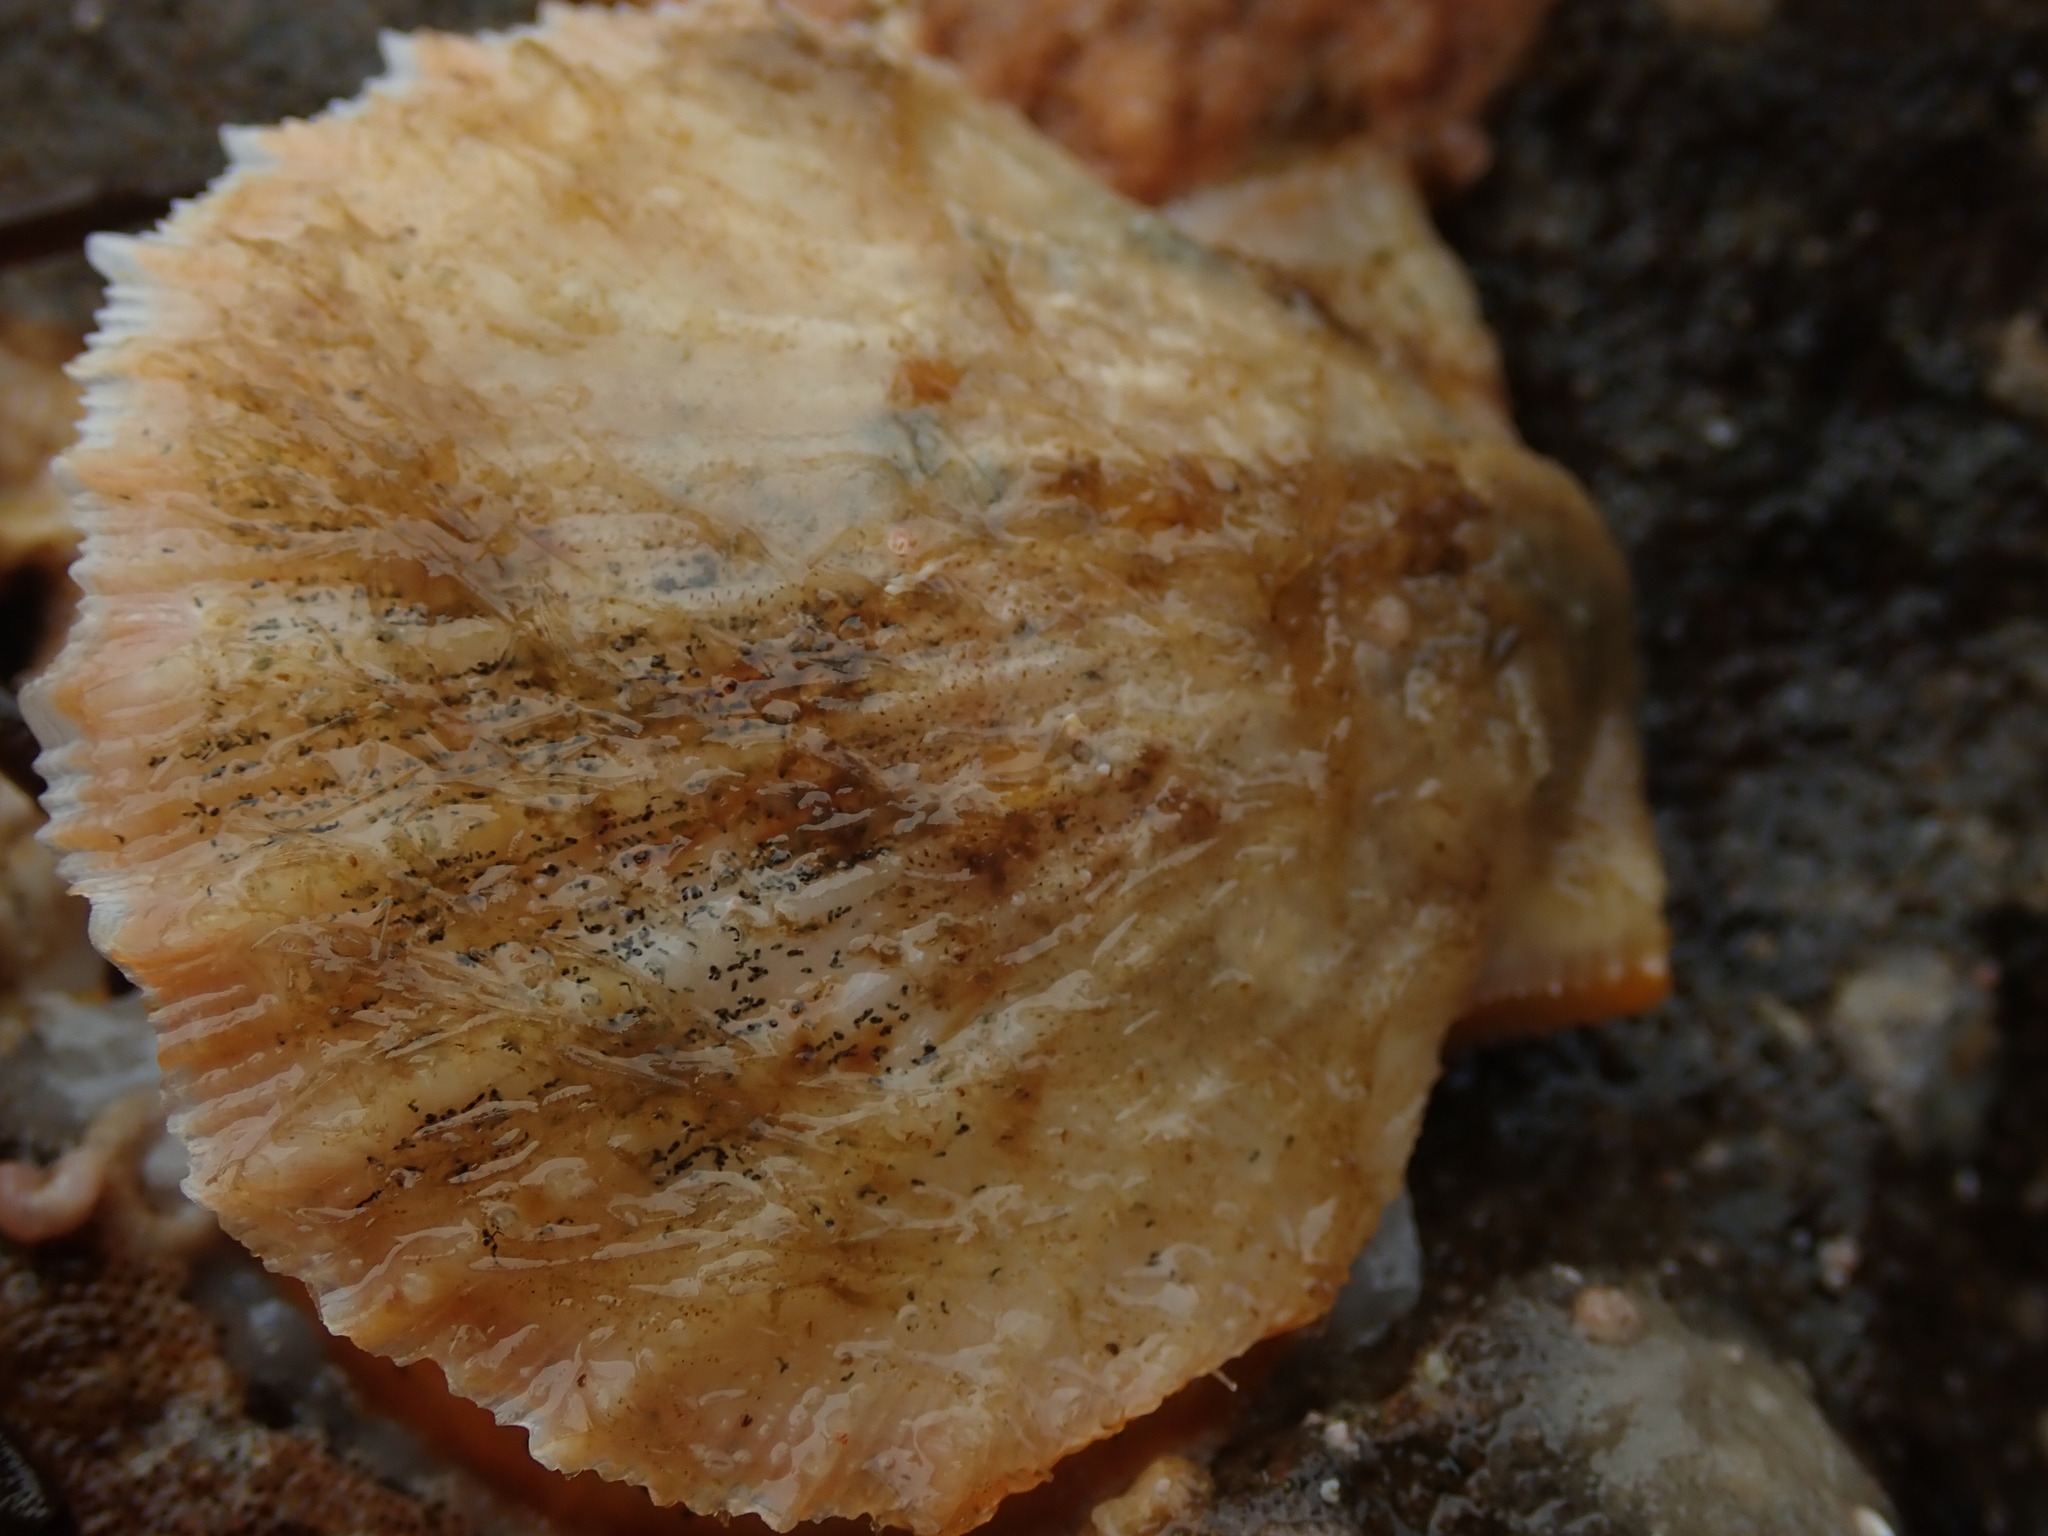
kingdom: Animalia
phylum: Mollusca
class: Bivalvia
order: Pectinida
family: Pectinidae
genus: Crassadoma
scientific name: Crassadoma gigantea
